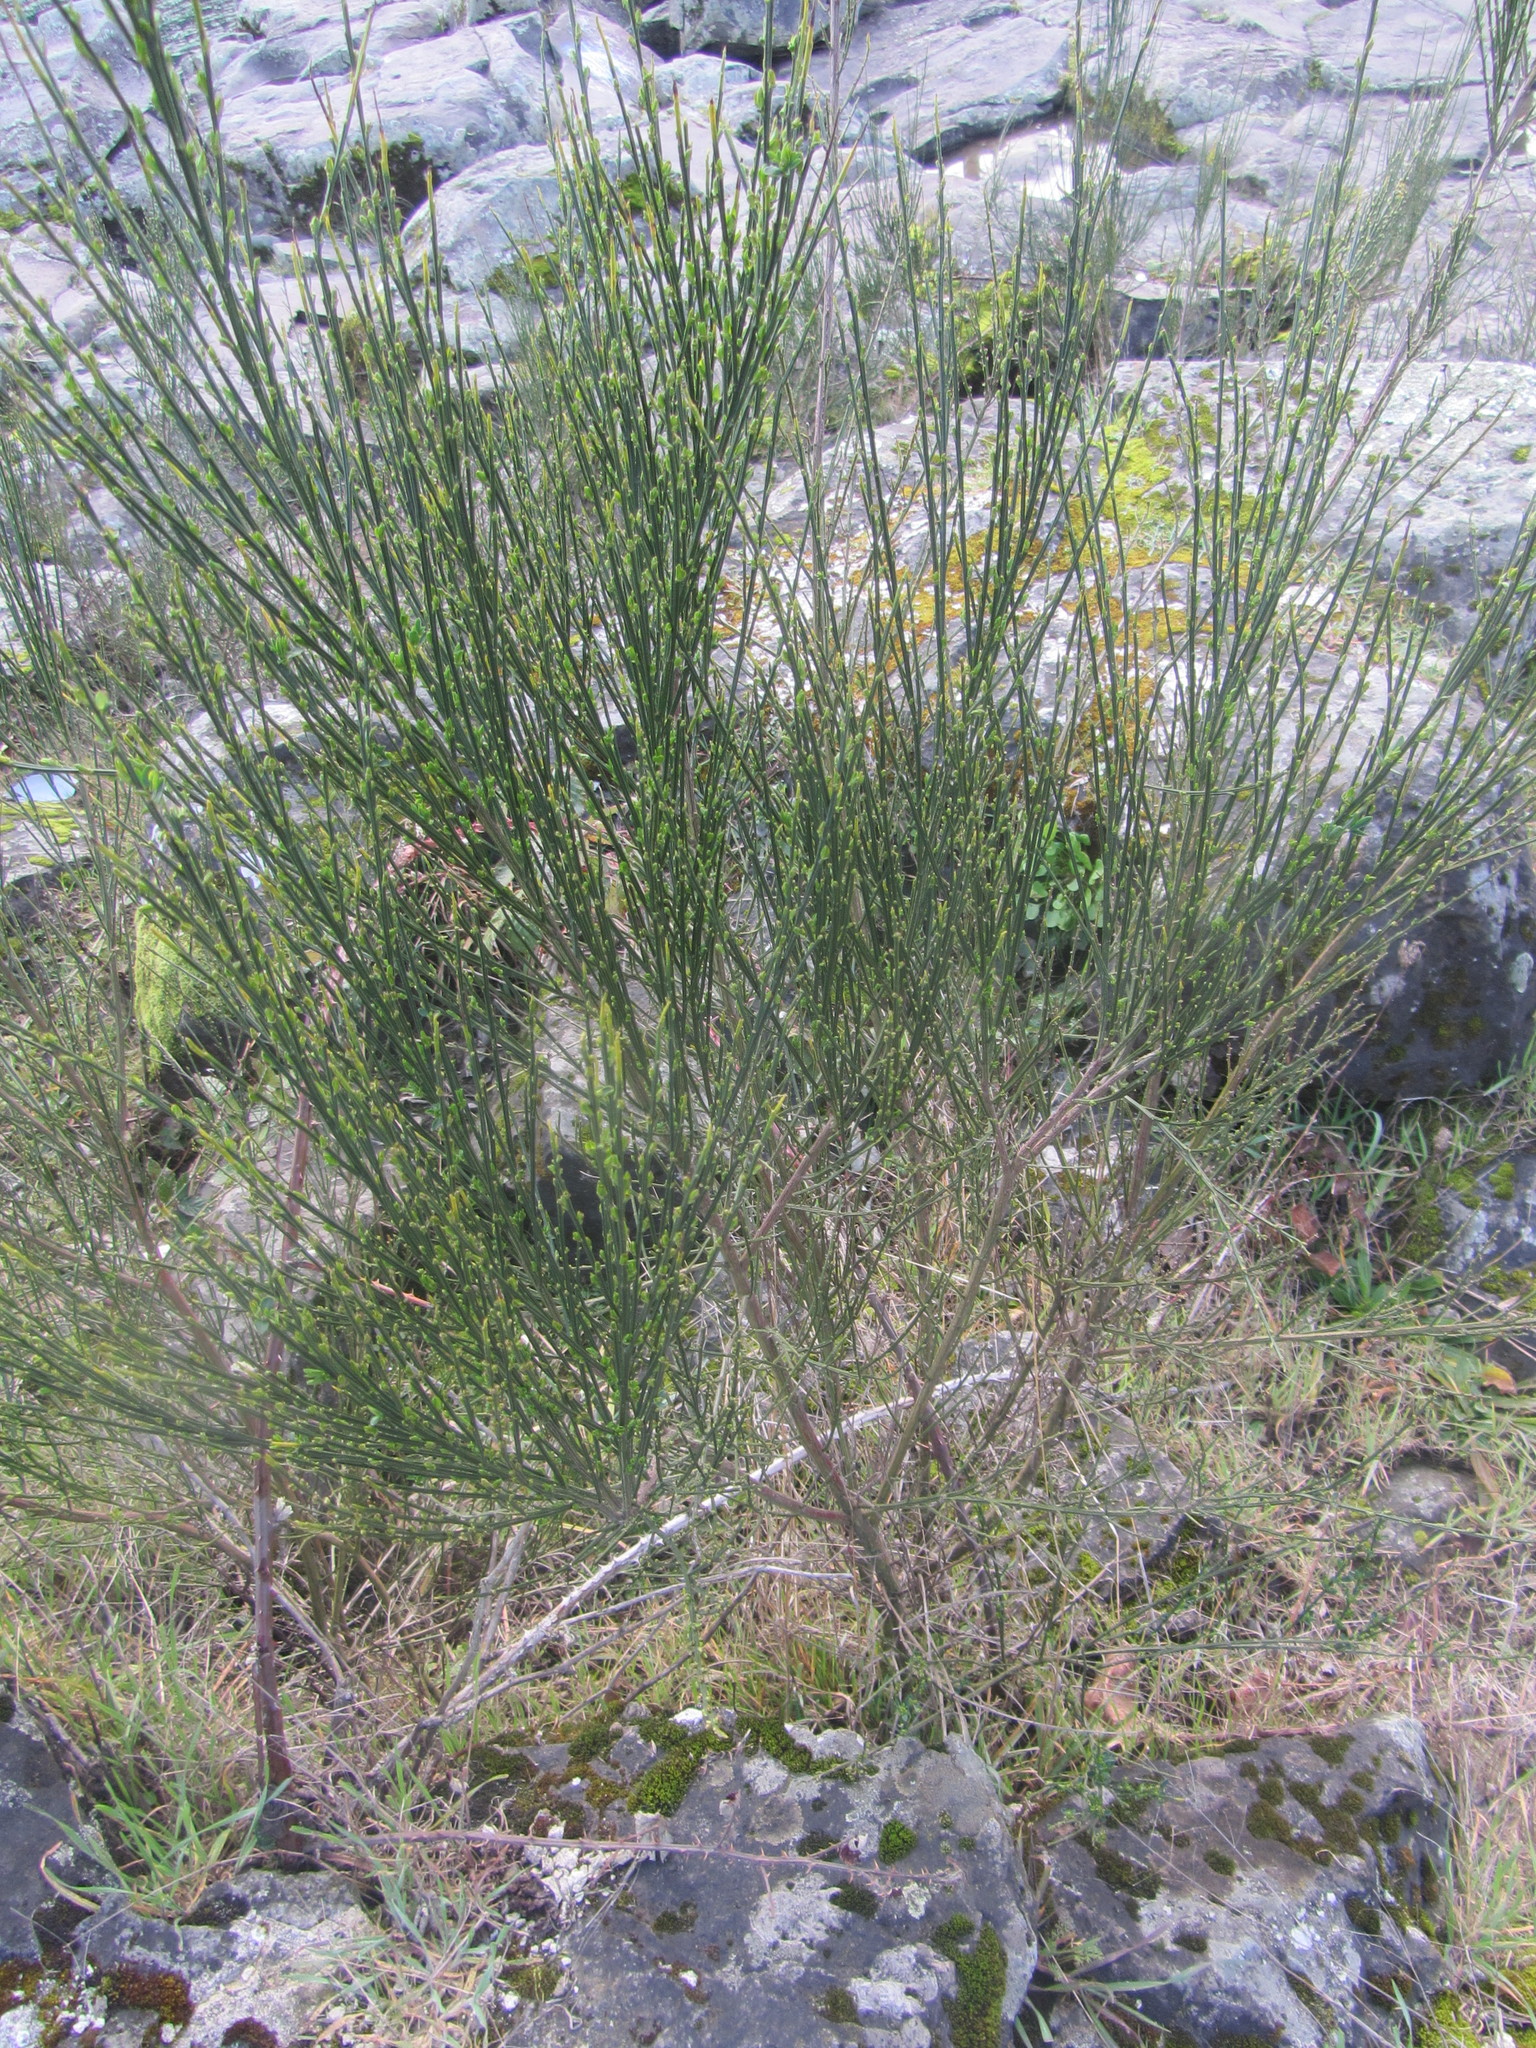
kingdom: Plantae
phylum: Tracheophyta
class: Magnoliopsida
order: Fabales
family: Fabaceae
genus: Cytisus
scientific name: Cytisus scoparius
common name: Scotch broom
